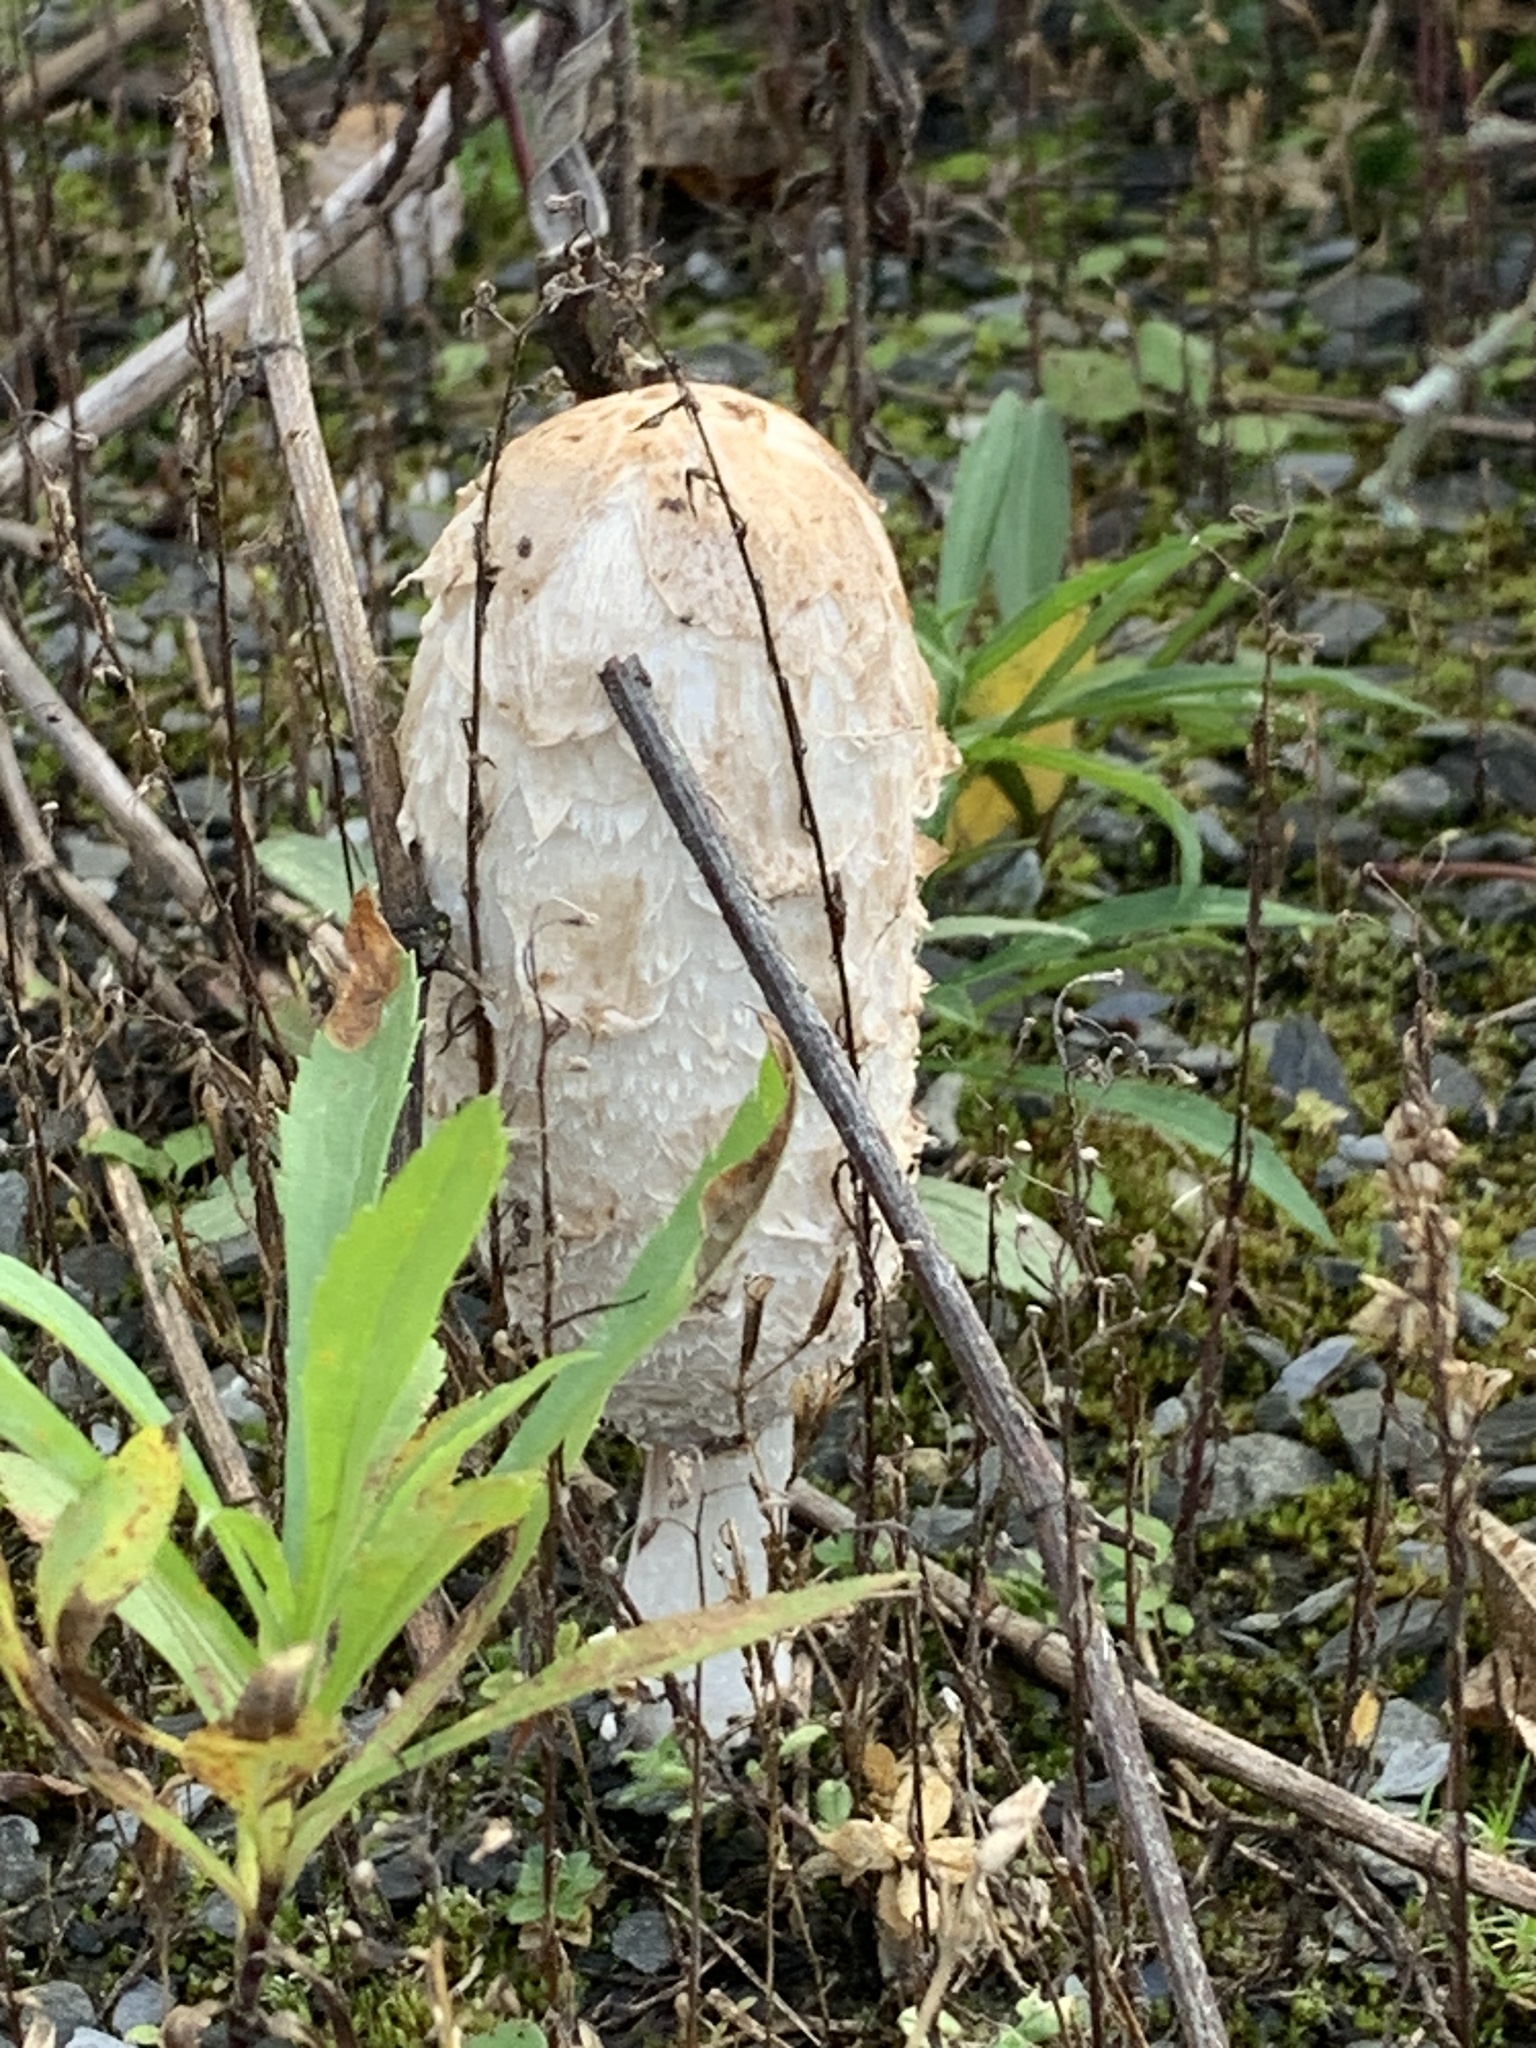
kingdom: Fungi
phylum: Basidiomycota
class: Agaricomycetes
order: Agaricales
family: Agaricaceae
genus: Coprinus
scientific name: Coprinus comatus
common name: Lawyer's wig
